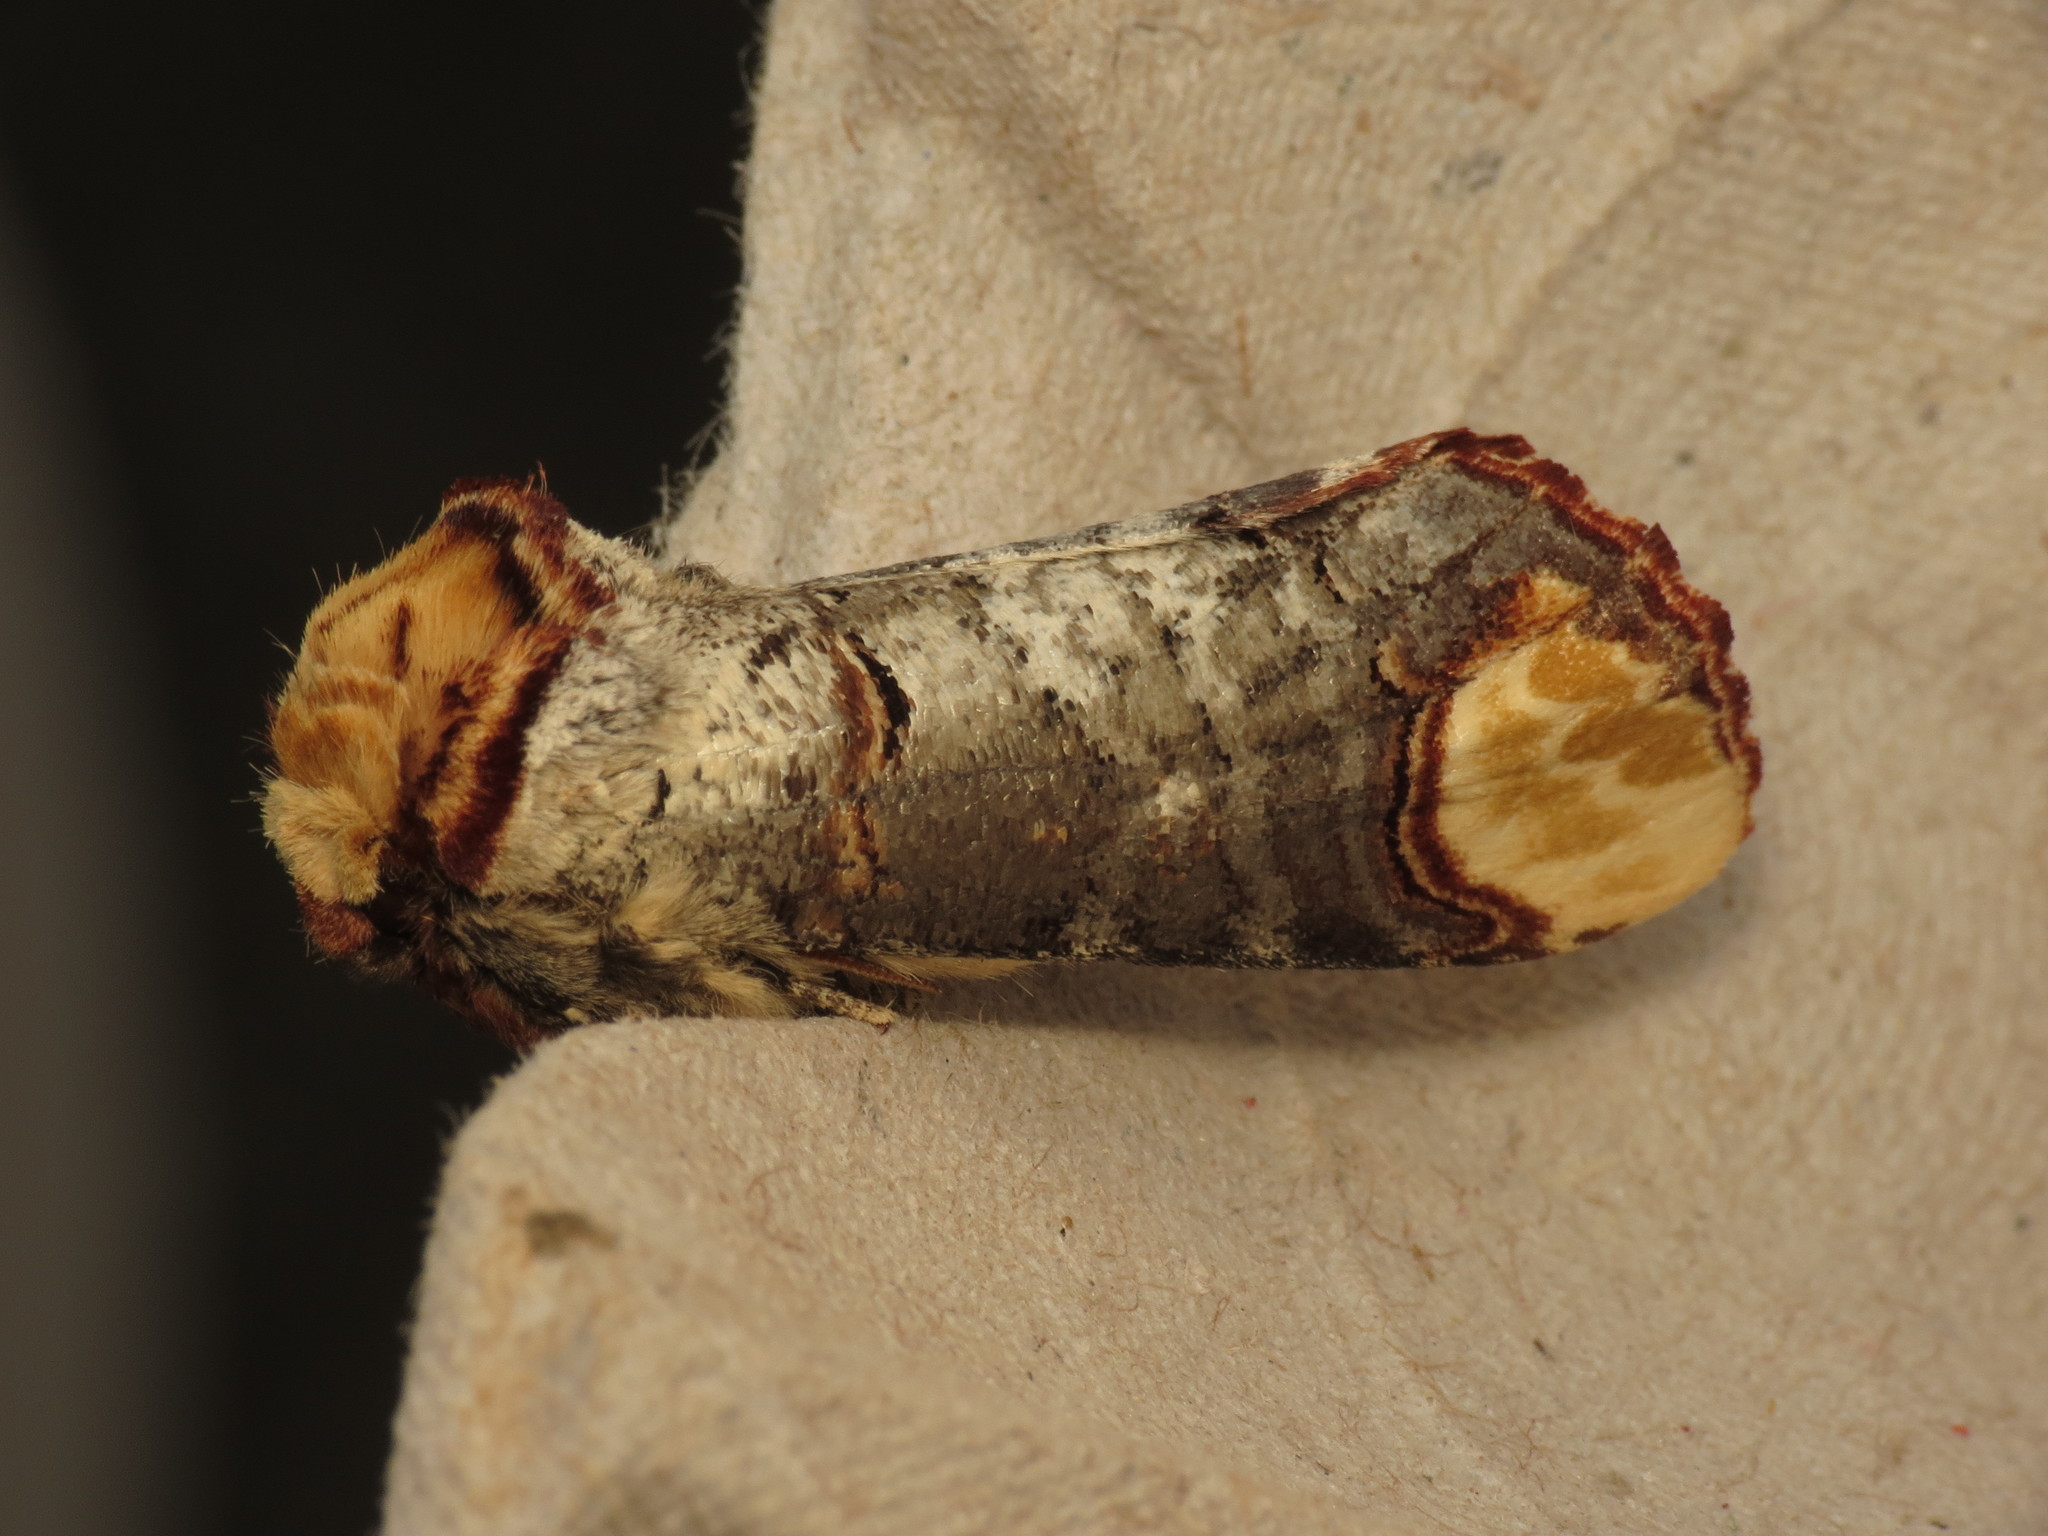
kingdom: Animalia
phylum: Arthropoda
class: Insecta
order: Lepidoptera
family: Notodontidae
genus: Phalera
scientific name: Phalera bucephala
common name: Buff-tip
